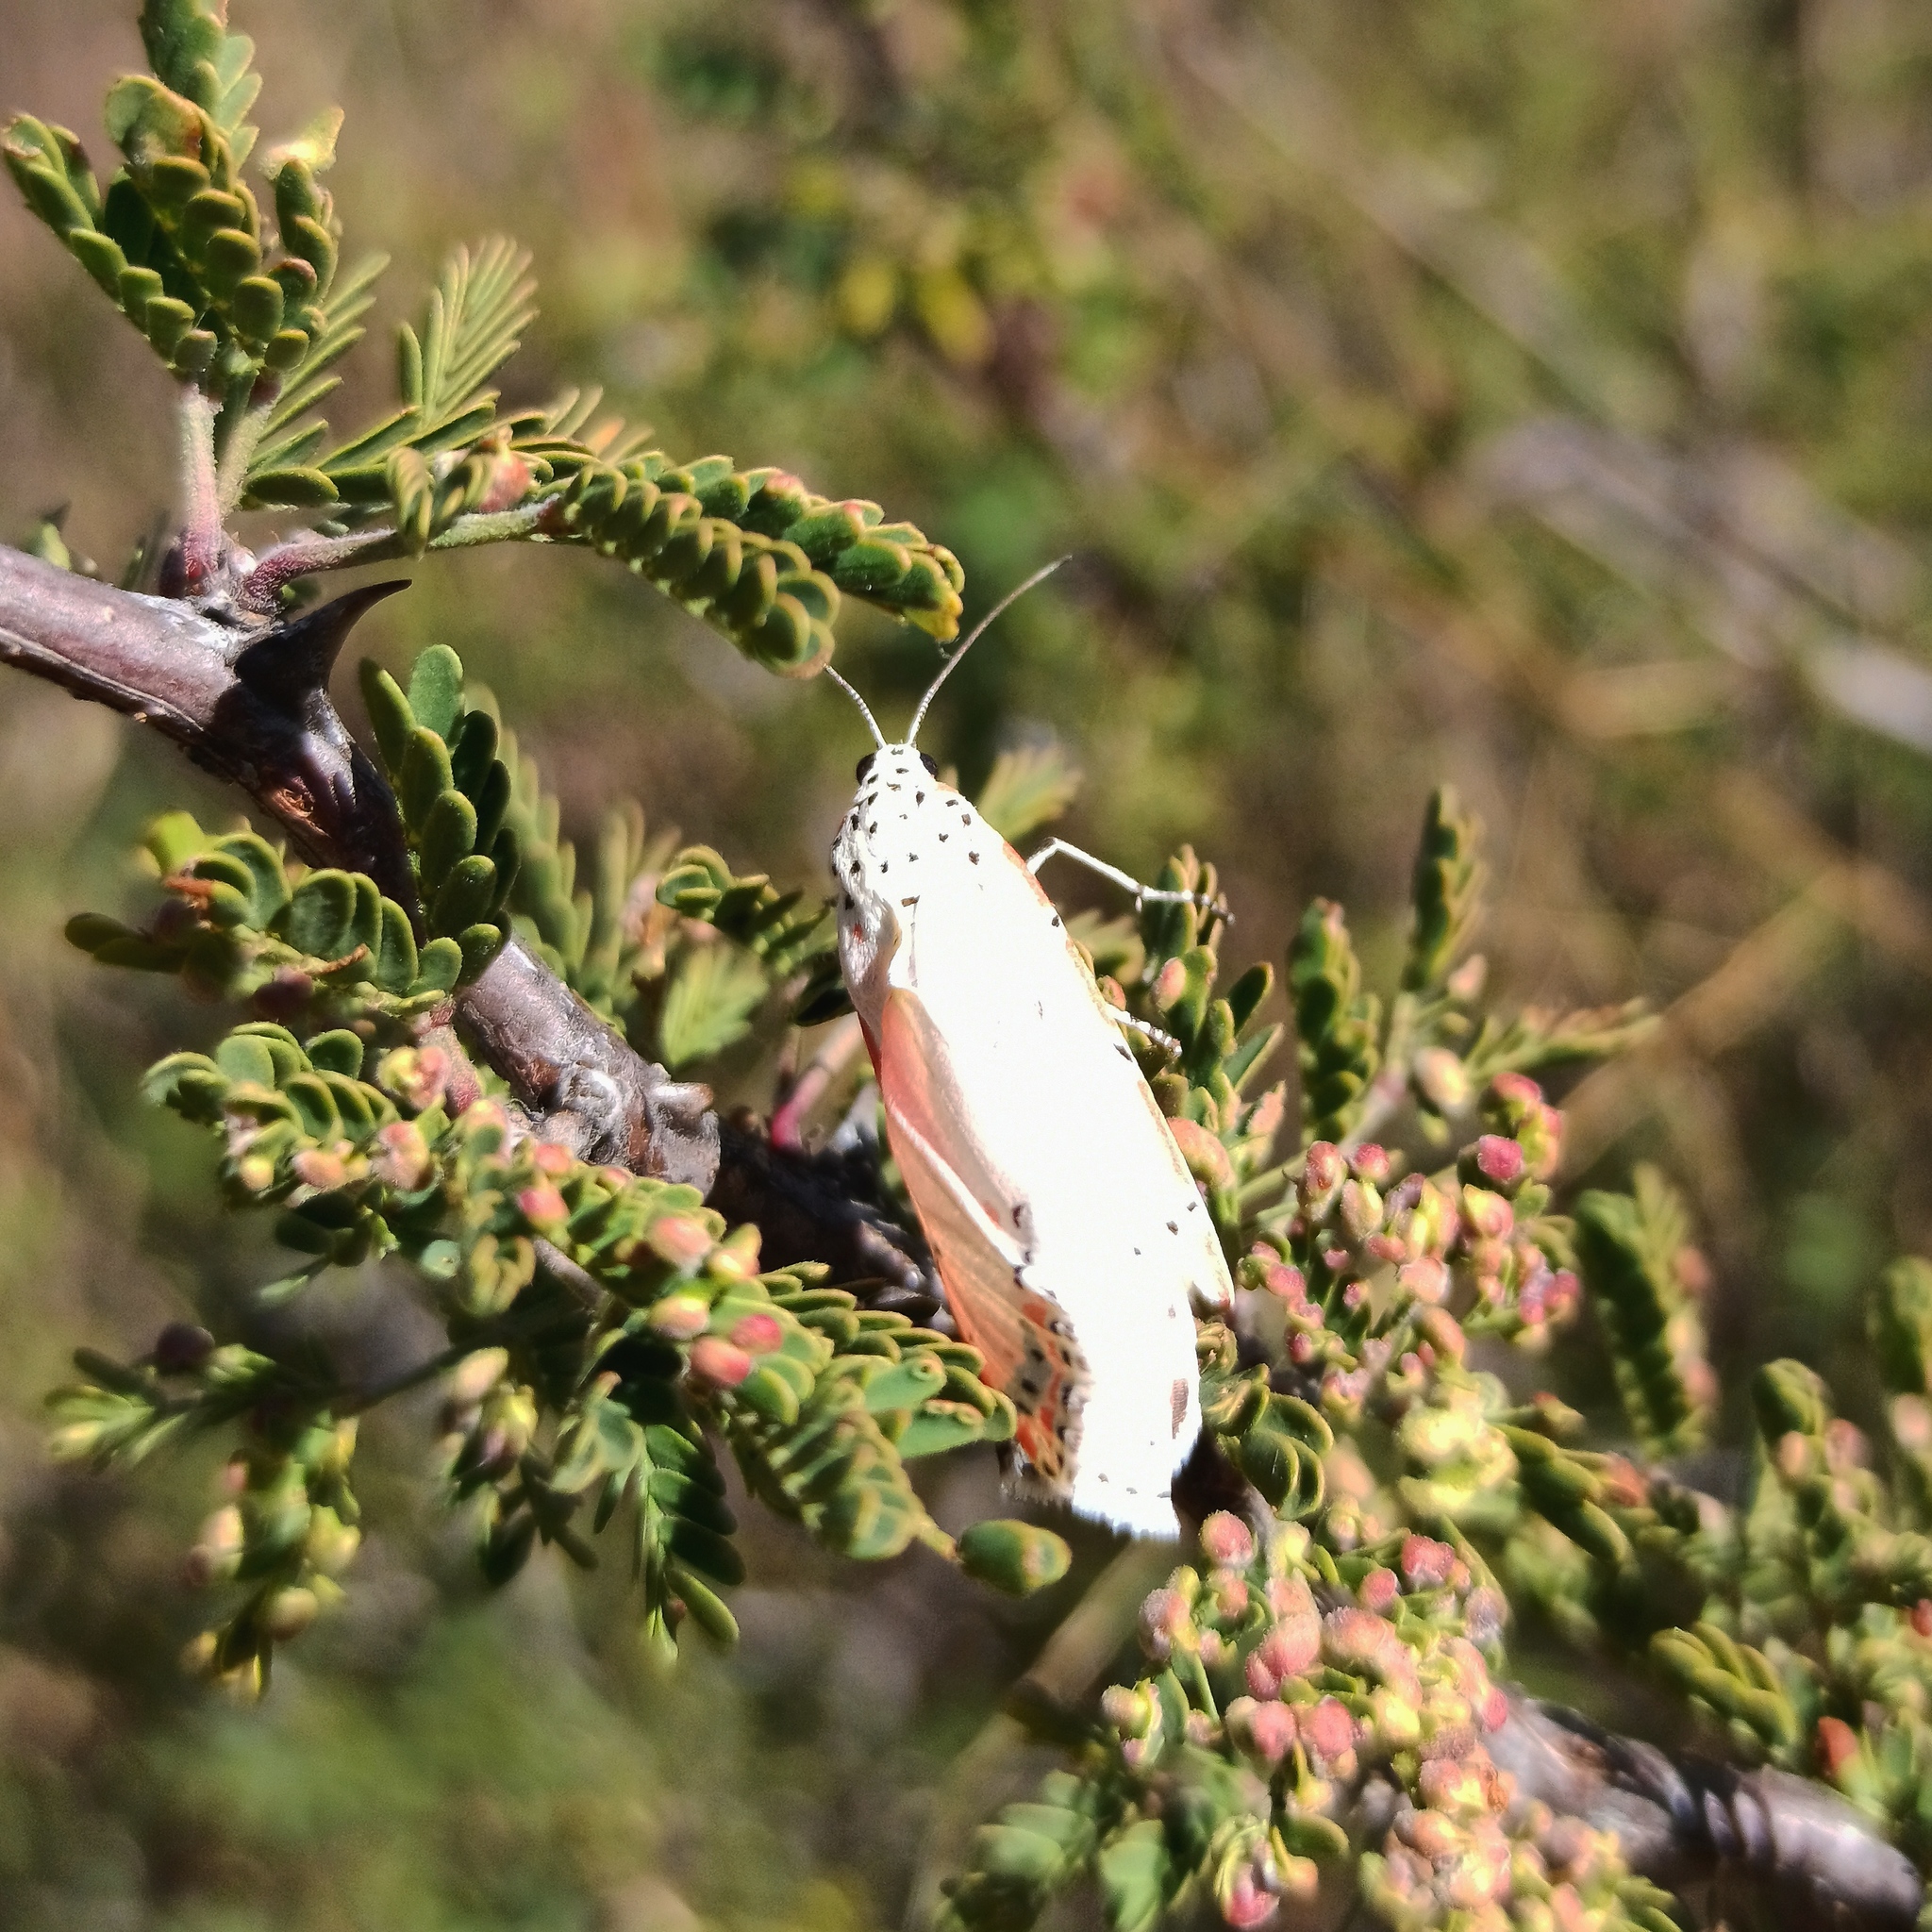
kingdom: Animalia
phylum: Arthropoda
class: Insecta
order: Lepidoptera
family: Erebidae
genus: Utetheisa
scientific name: Utetheisa ornatrix
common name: Beautiful utetheisa
